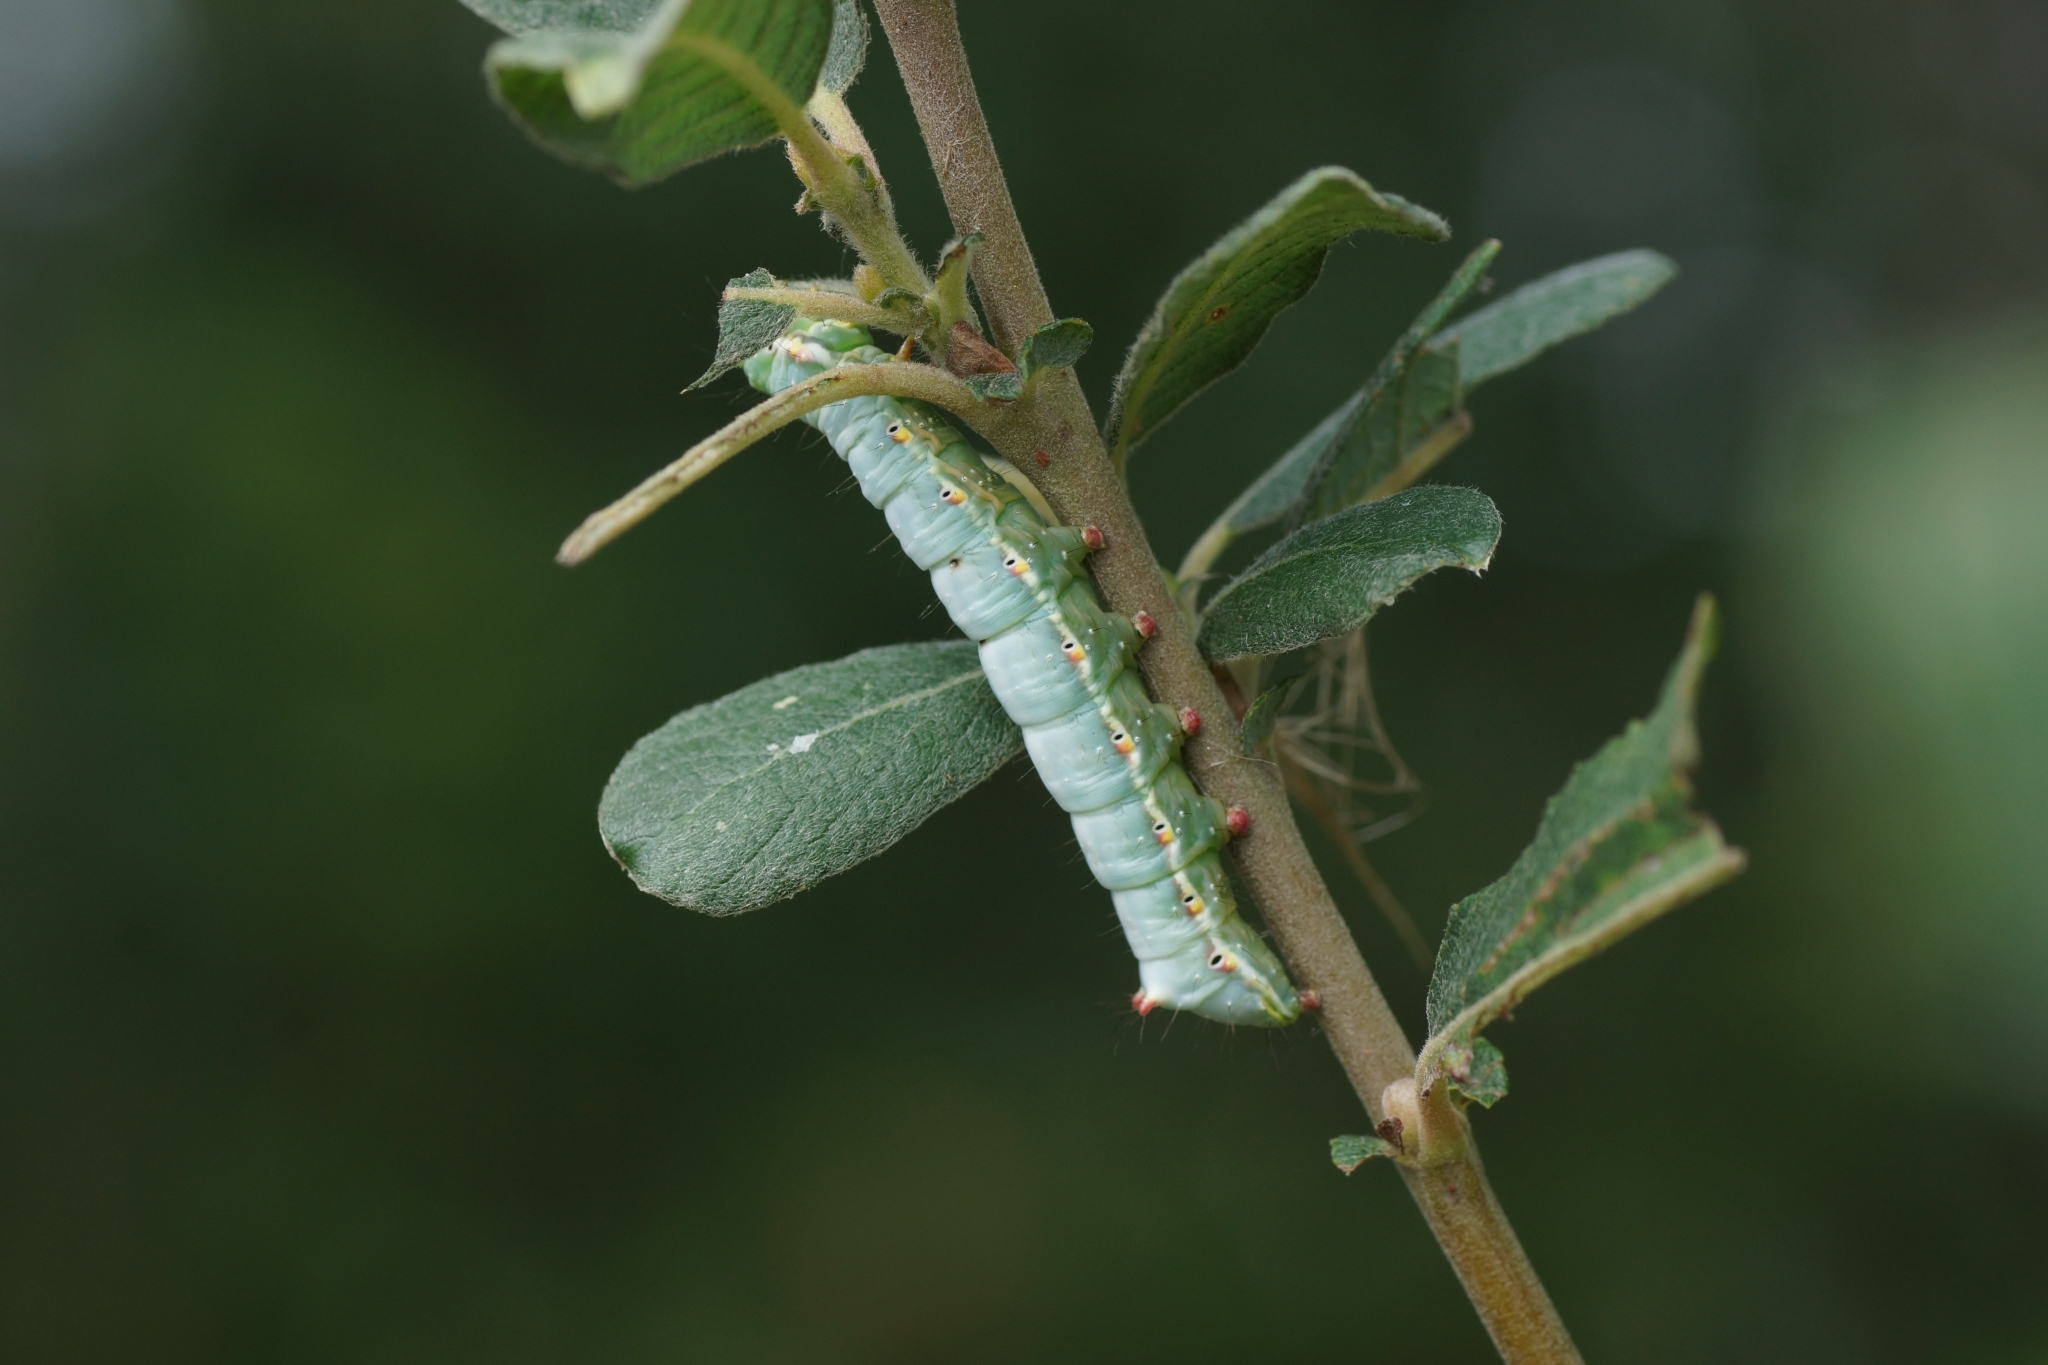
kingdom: Animalia
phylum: Arthropoda
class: Insecta
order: Lepidoptera
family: Notodontidae
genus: Ptilodon
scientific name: Ptilodon capucina
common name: Coxcomb prominent
